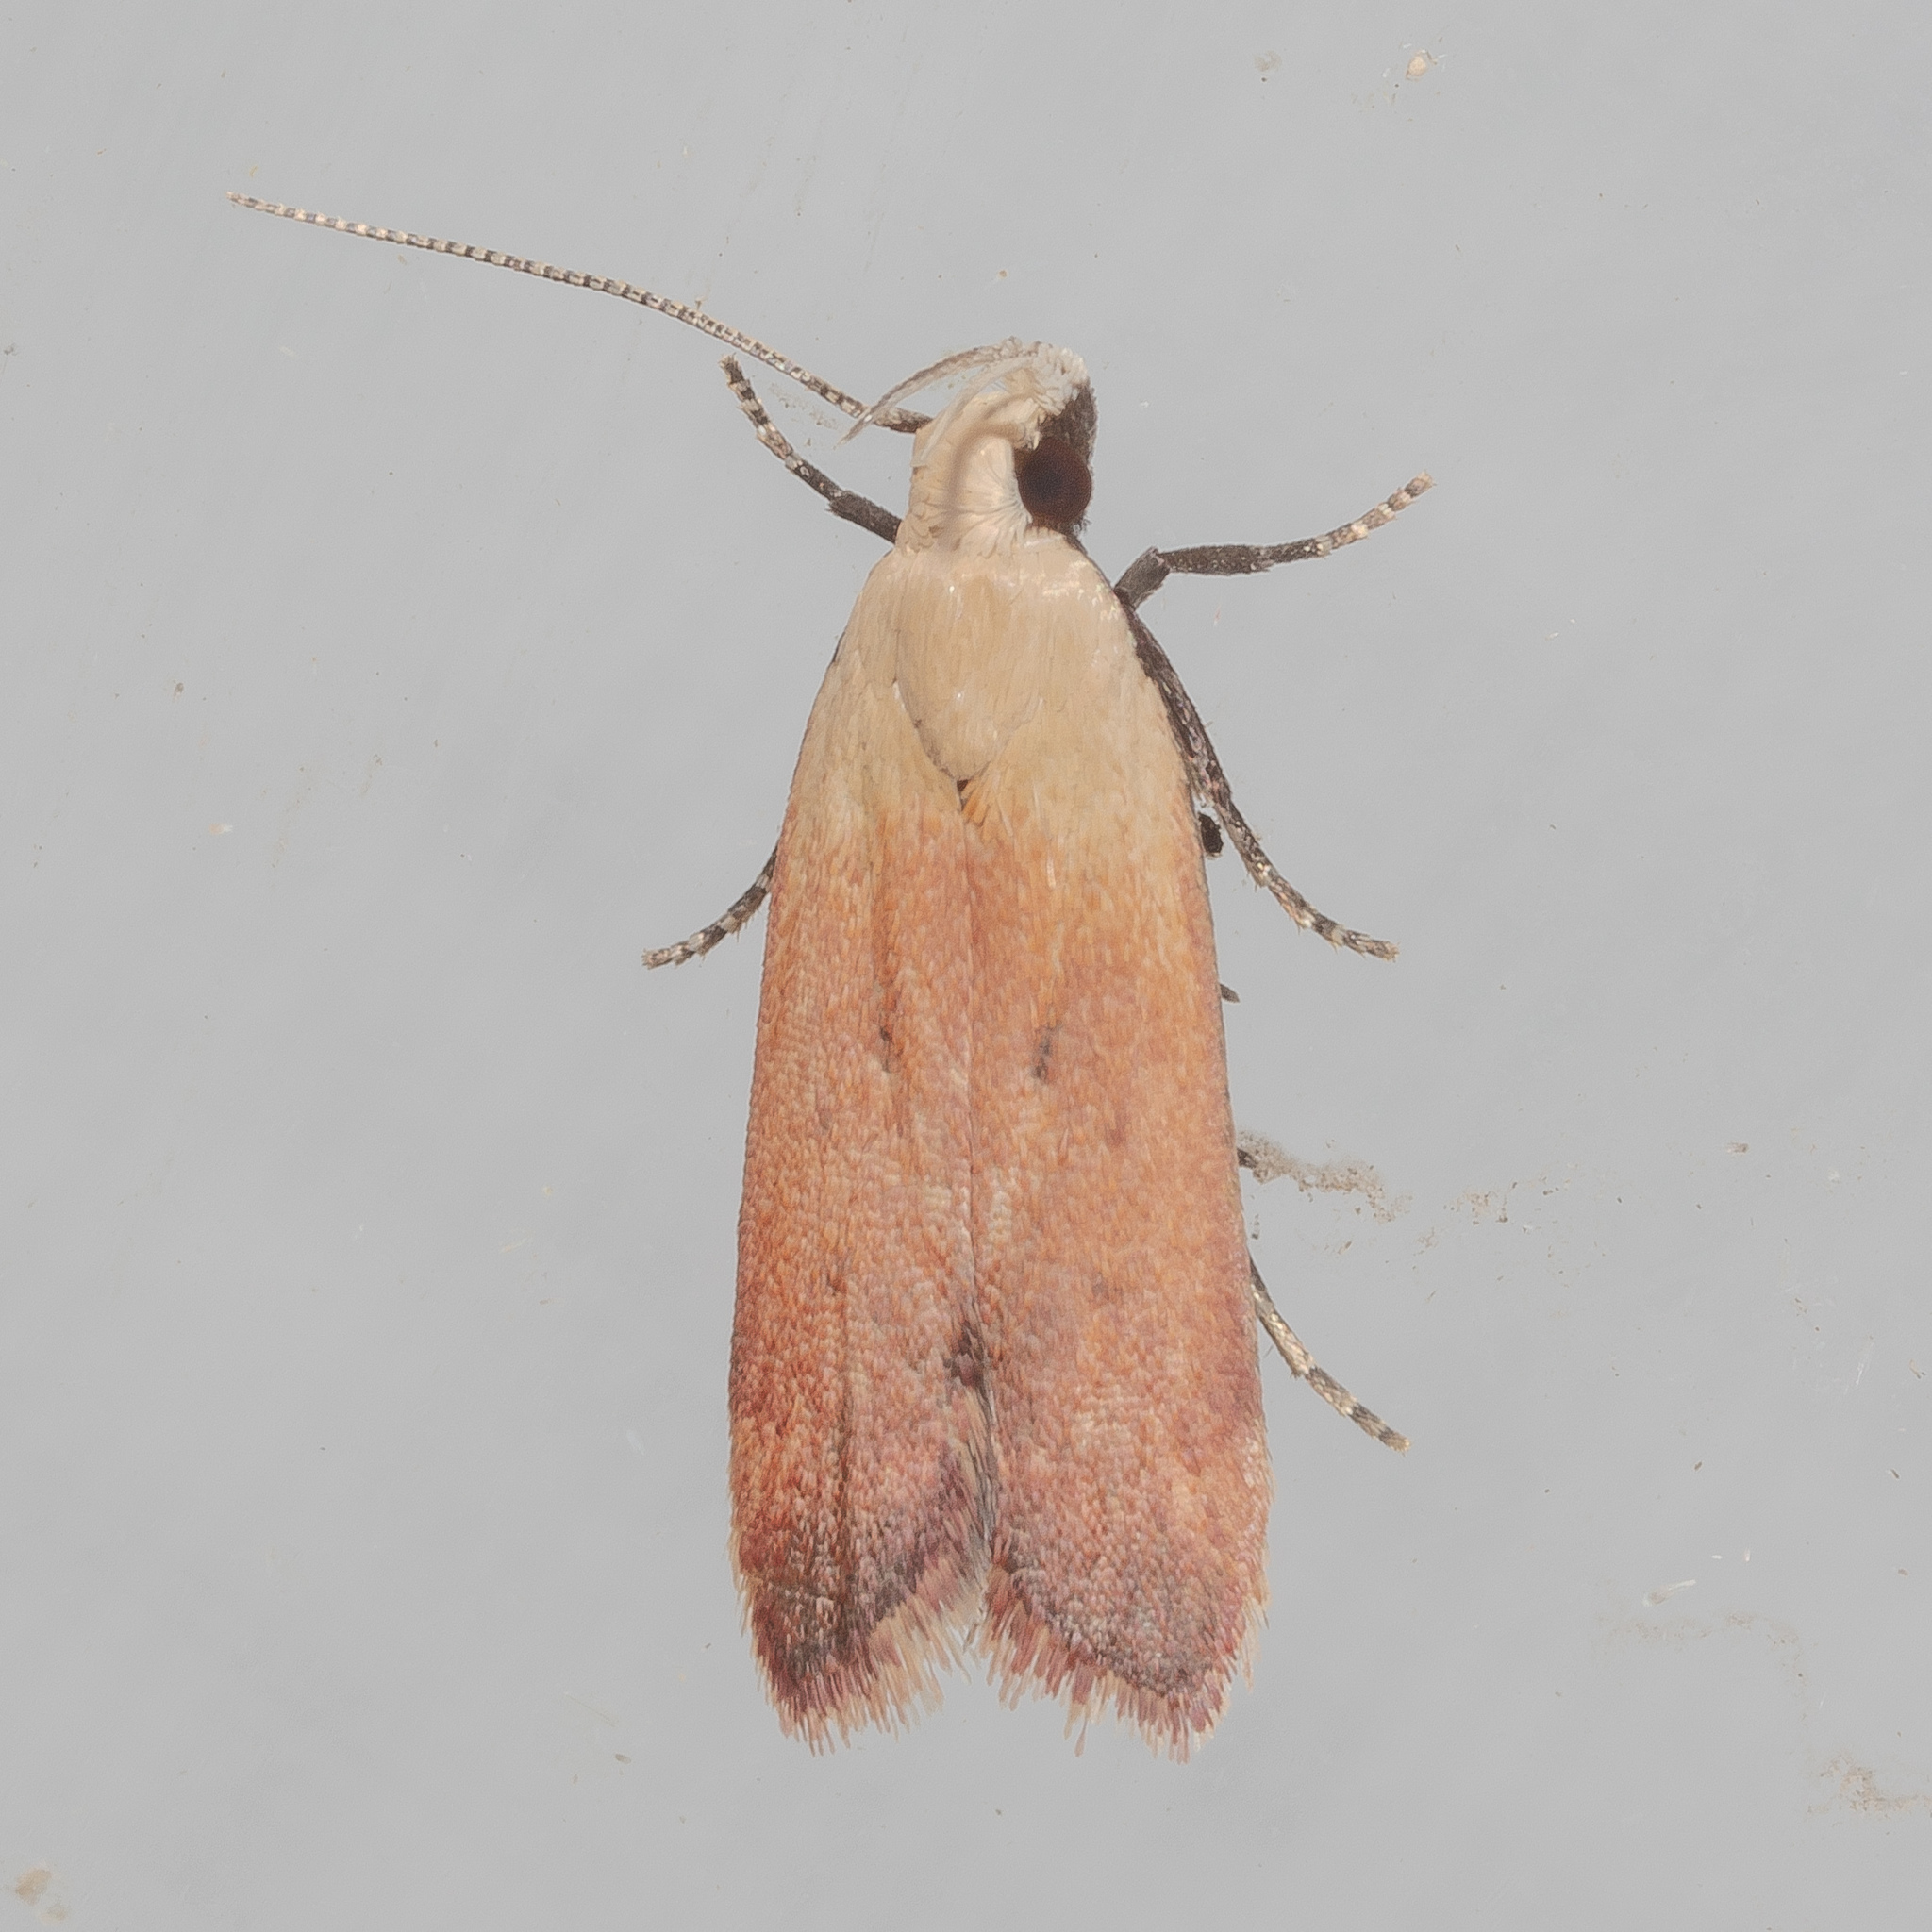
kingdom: Animalia
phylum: Arthropoda
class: Insecta
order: Lepidoptera
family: Gelechiidae
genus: Anacampsis
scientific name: Anacampsis fullonella
